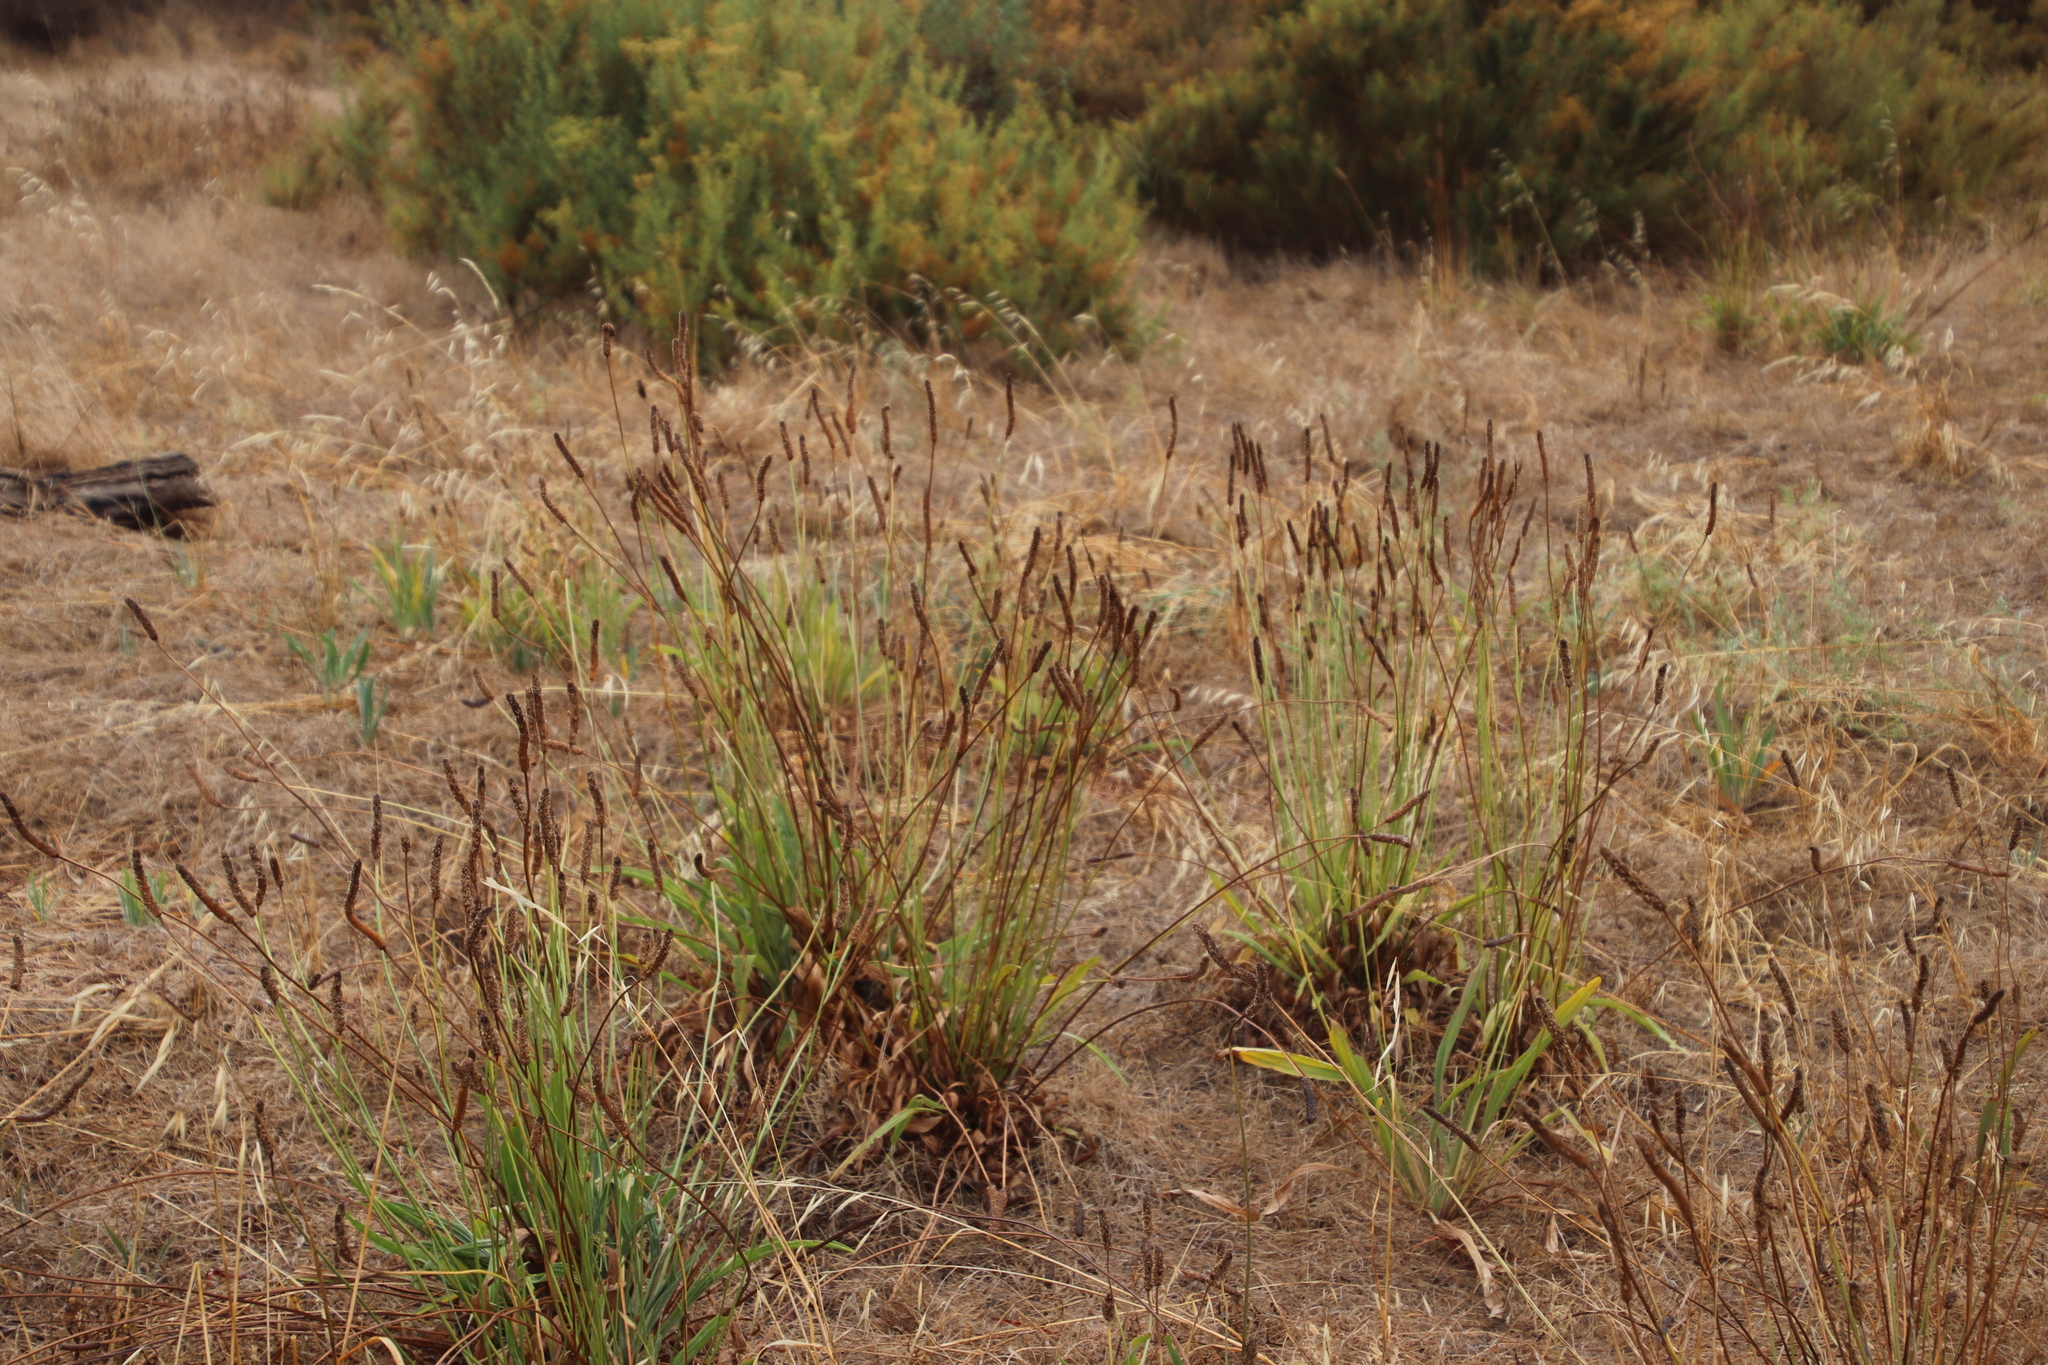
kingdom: Plantae
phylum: Tracheophyta
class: Magnoliopsida
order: Lamiales
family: Plantaginaceae
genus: Plantago
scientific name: Plantago lanceolata
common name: Ribwort plantain
